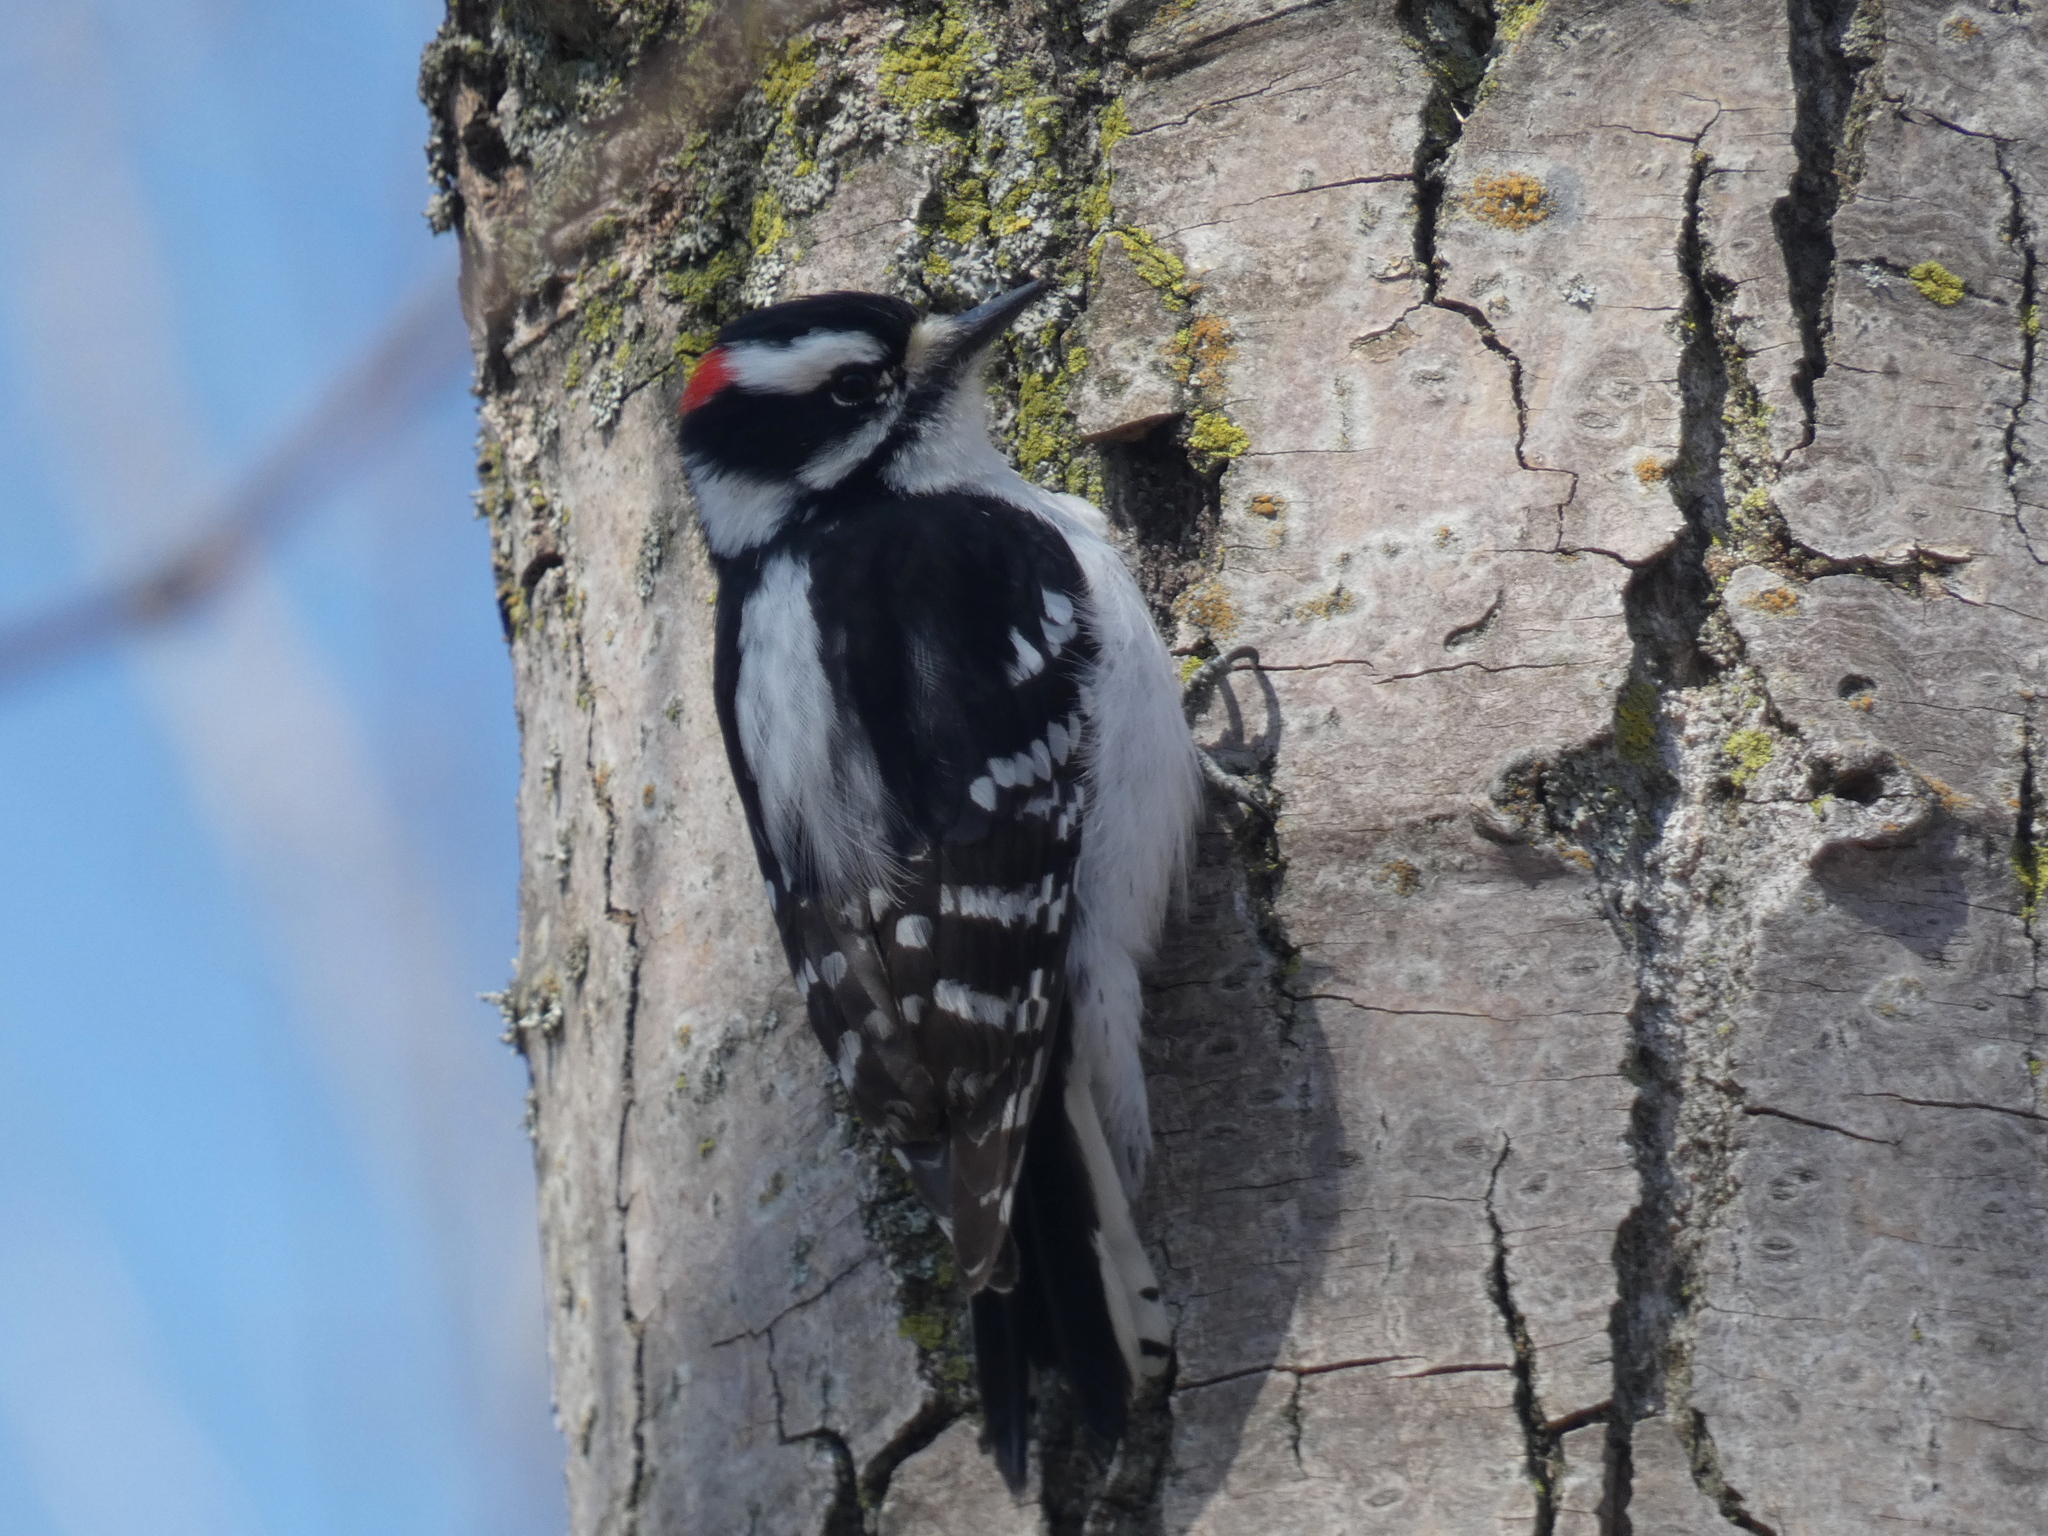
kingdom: Animalia
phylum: Chordata
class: Aves
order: Piciformes
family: Picidae
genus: Dryobates
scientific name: Dryobates pubescens
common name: Downy woodpecker
